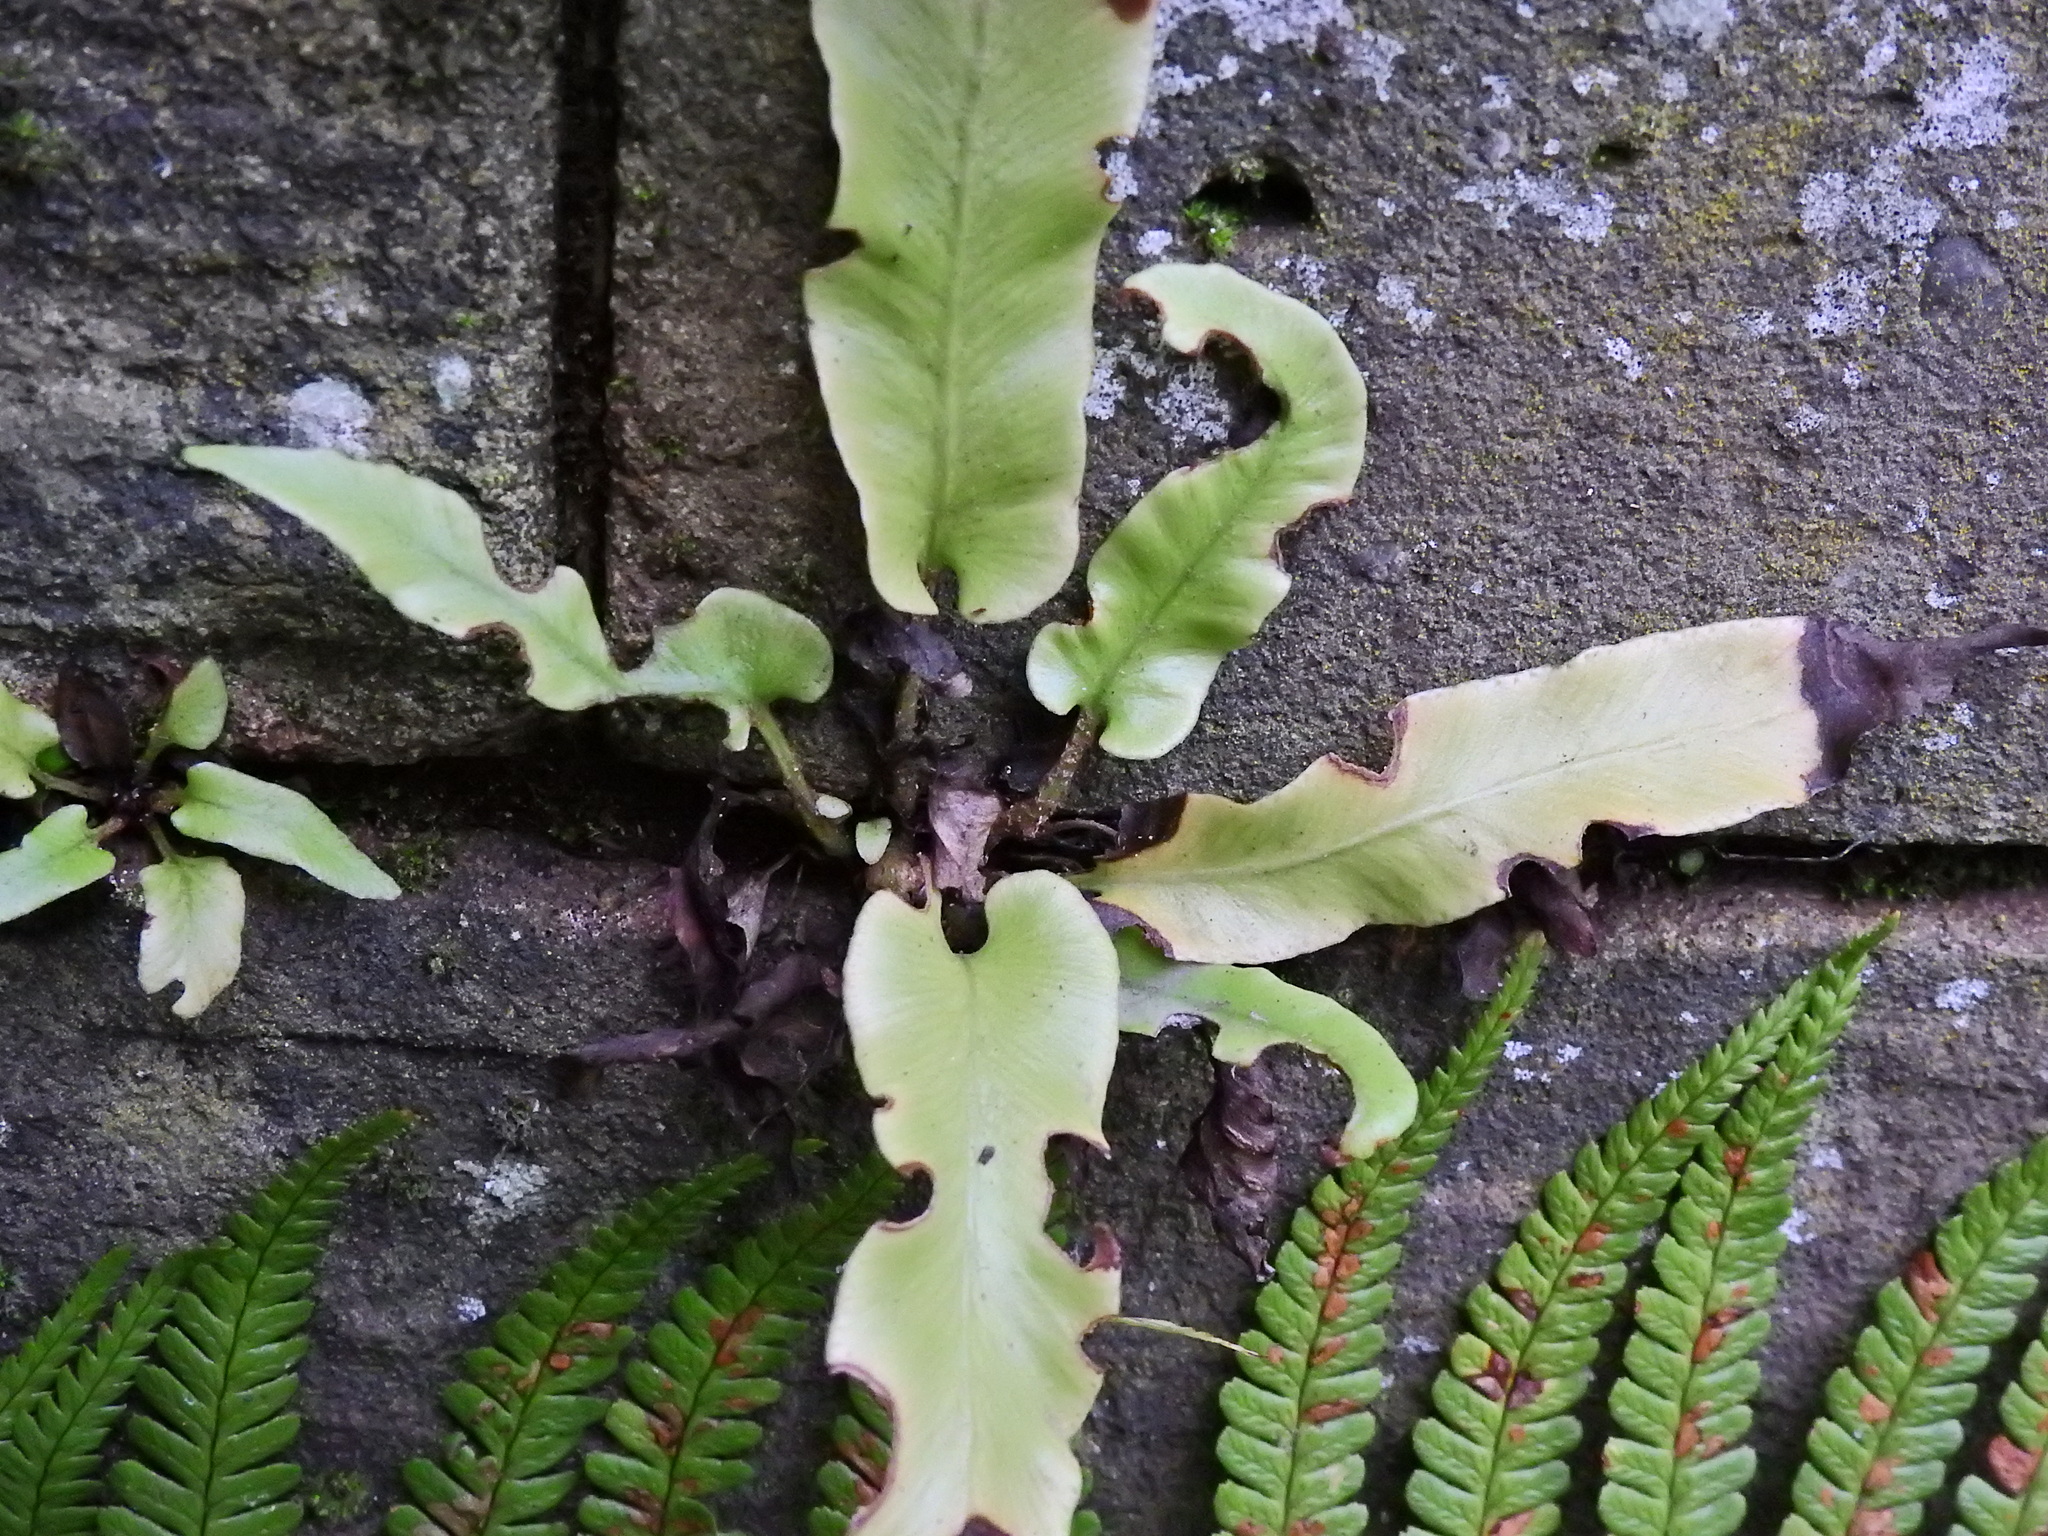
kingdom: Plantae
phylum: Tracheophyta
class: Polypodiopsida
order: Polypodiales
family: Aspleniaceae
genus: Asplenium
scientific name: Asplenium scolopendrium
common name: Hart's-tongue fern
